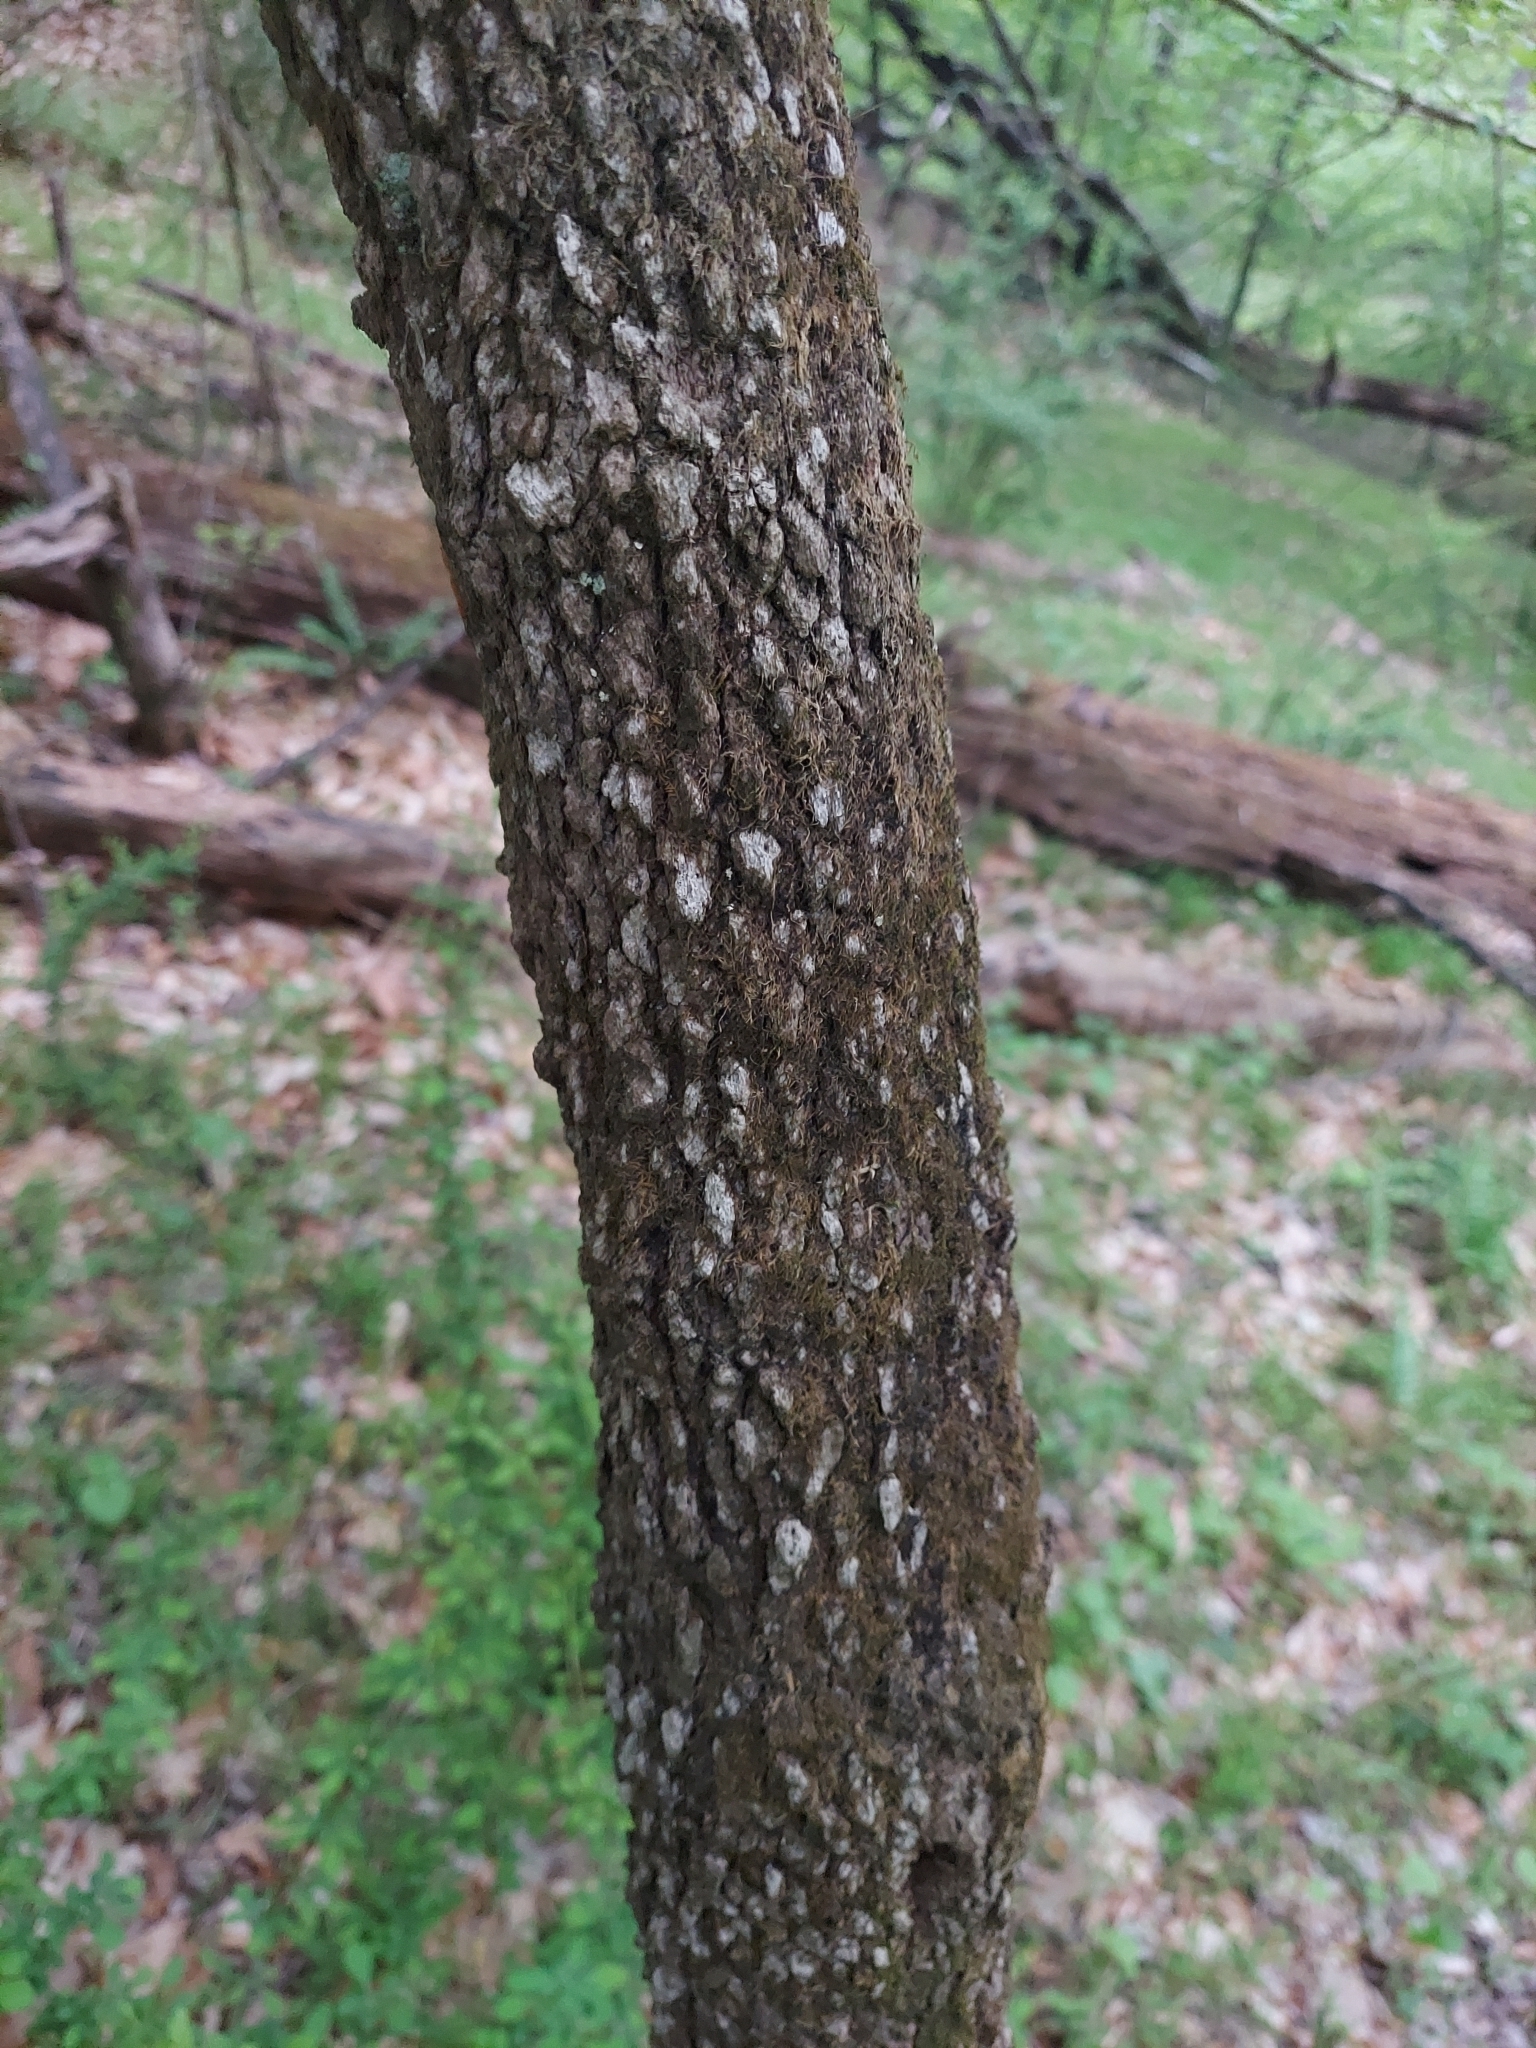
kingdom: Plantae
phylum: Tracheophyta
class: Magnoliopsida
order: Dipsacales
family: Viburnaceae
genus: Viburnum
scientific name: Viburnum prunifolium
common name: Black haw
